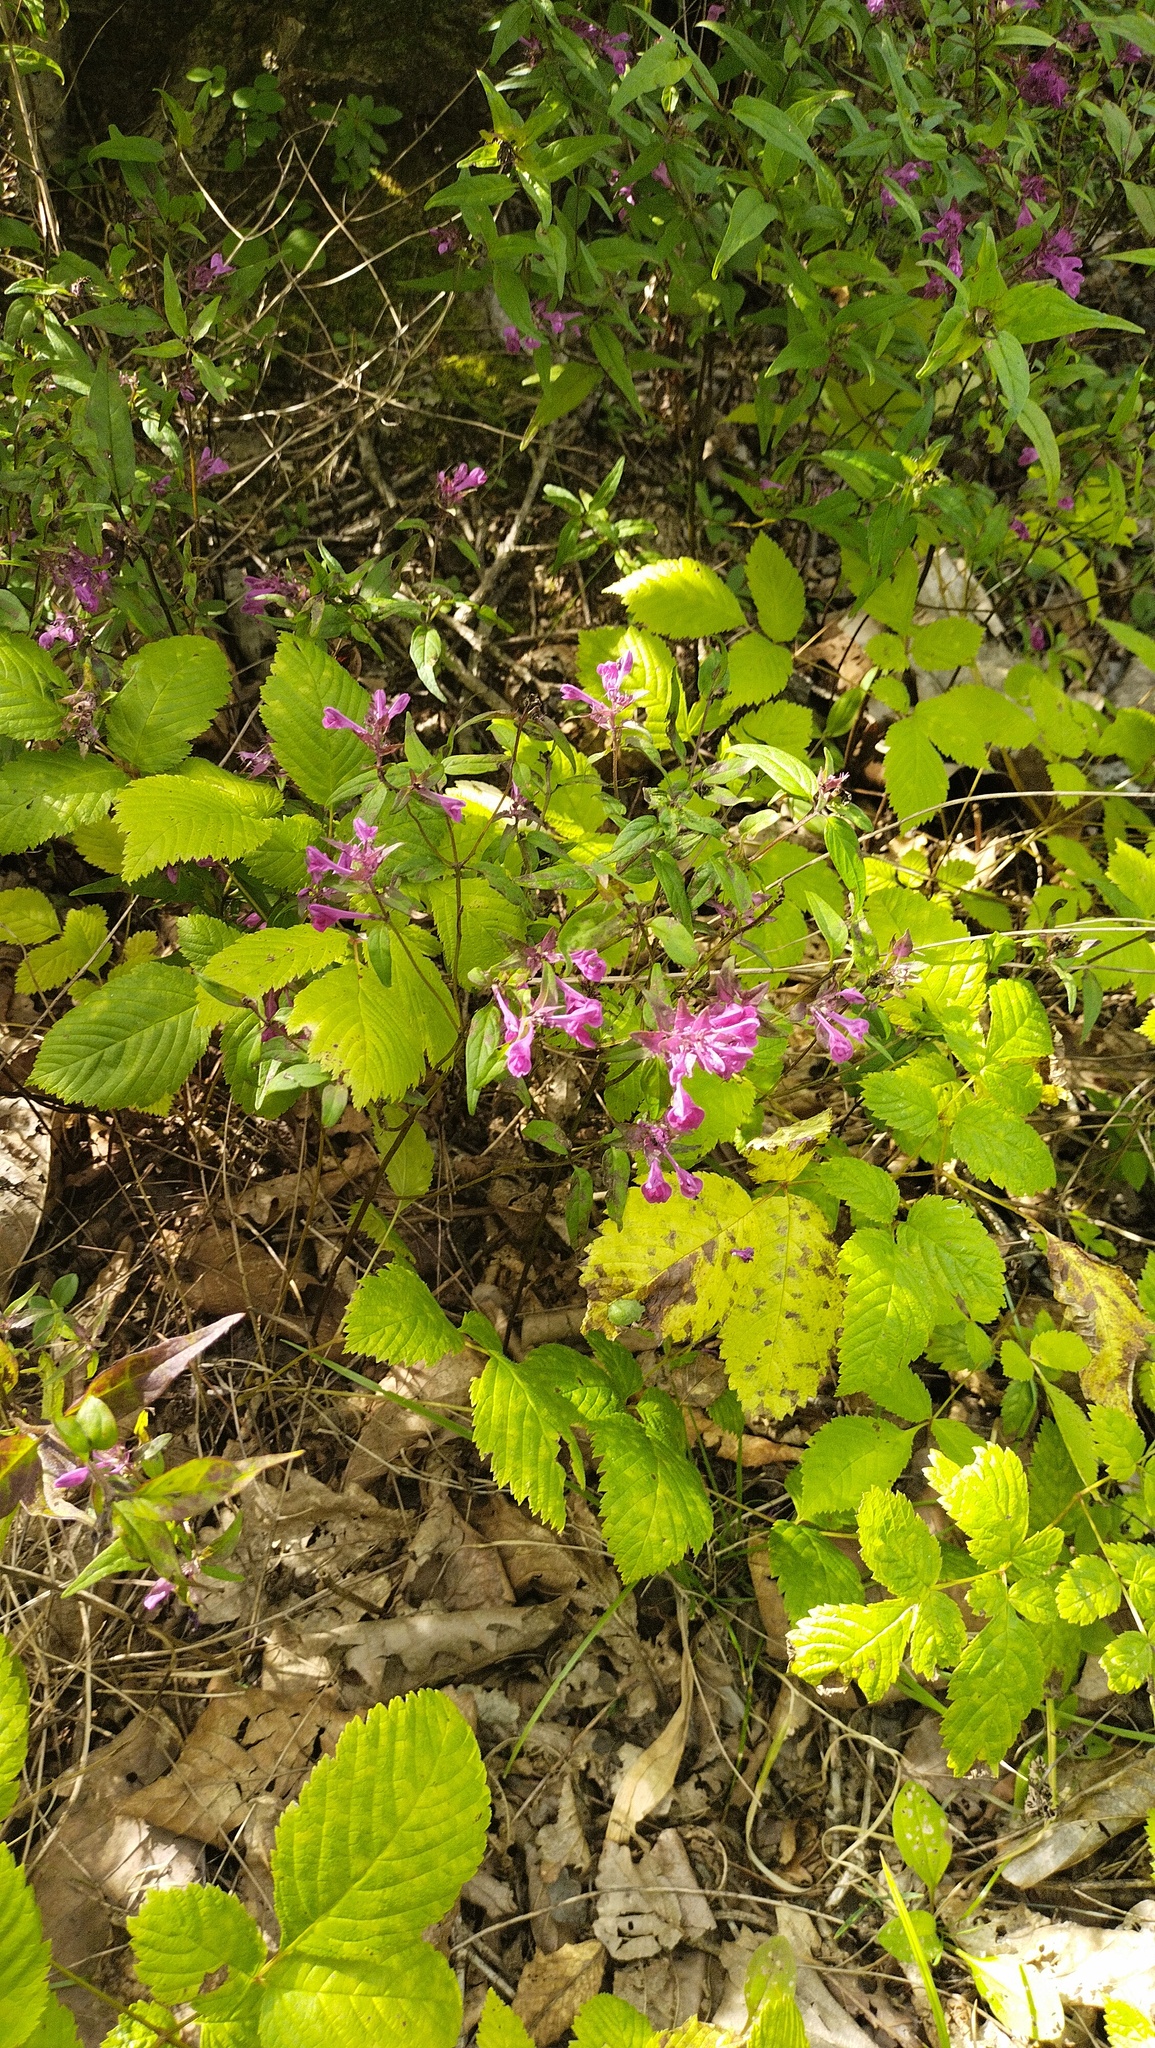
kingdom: Plantae
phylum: Tracheophyta
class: Magnoliopsida
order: Lamiales
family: Orobanchaceae
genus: Melampyrum
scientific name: Melampyrum setaceum
